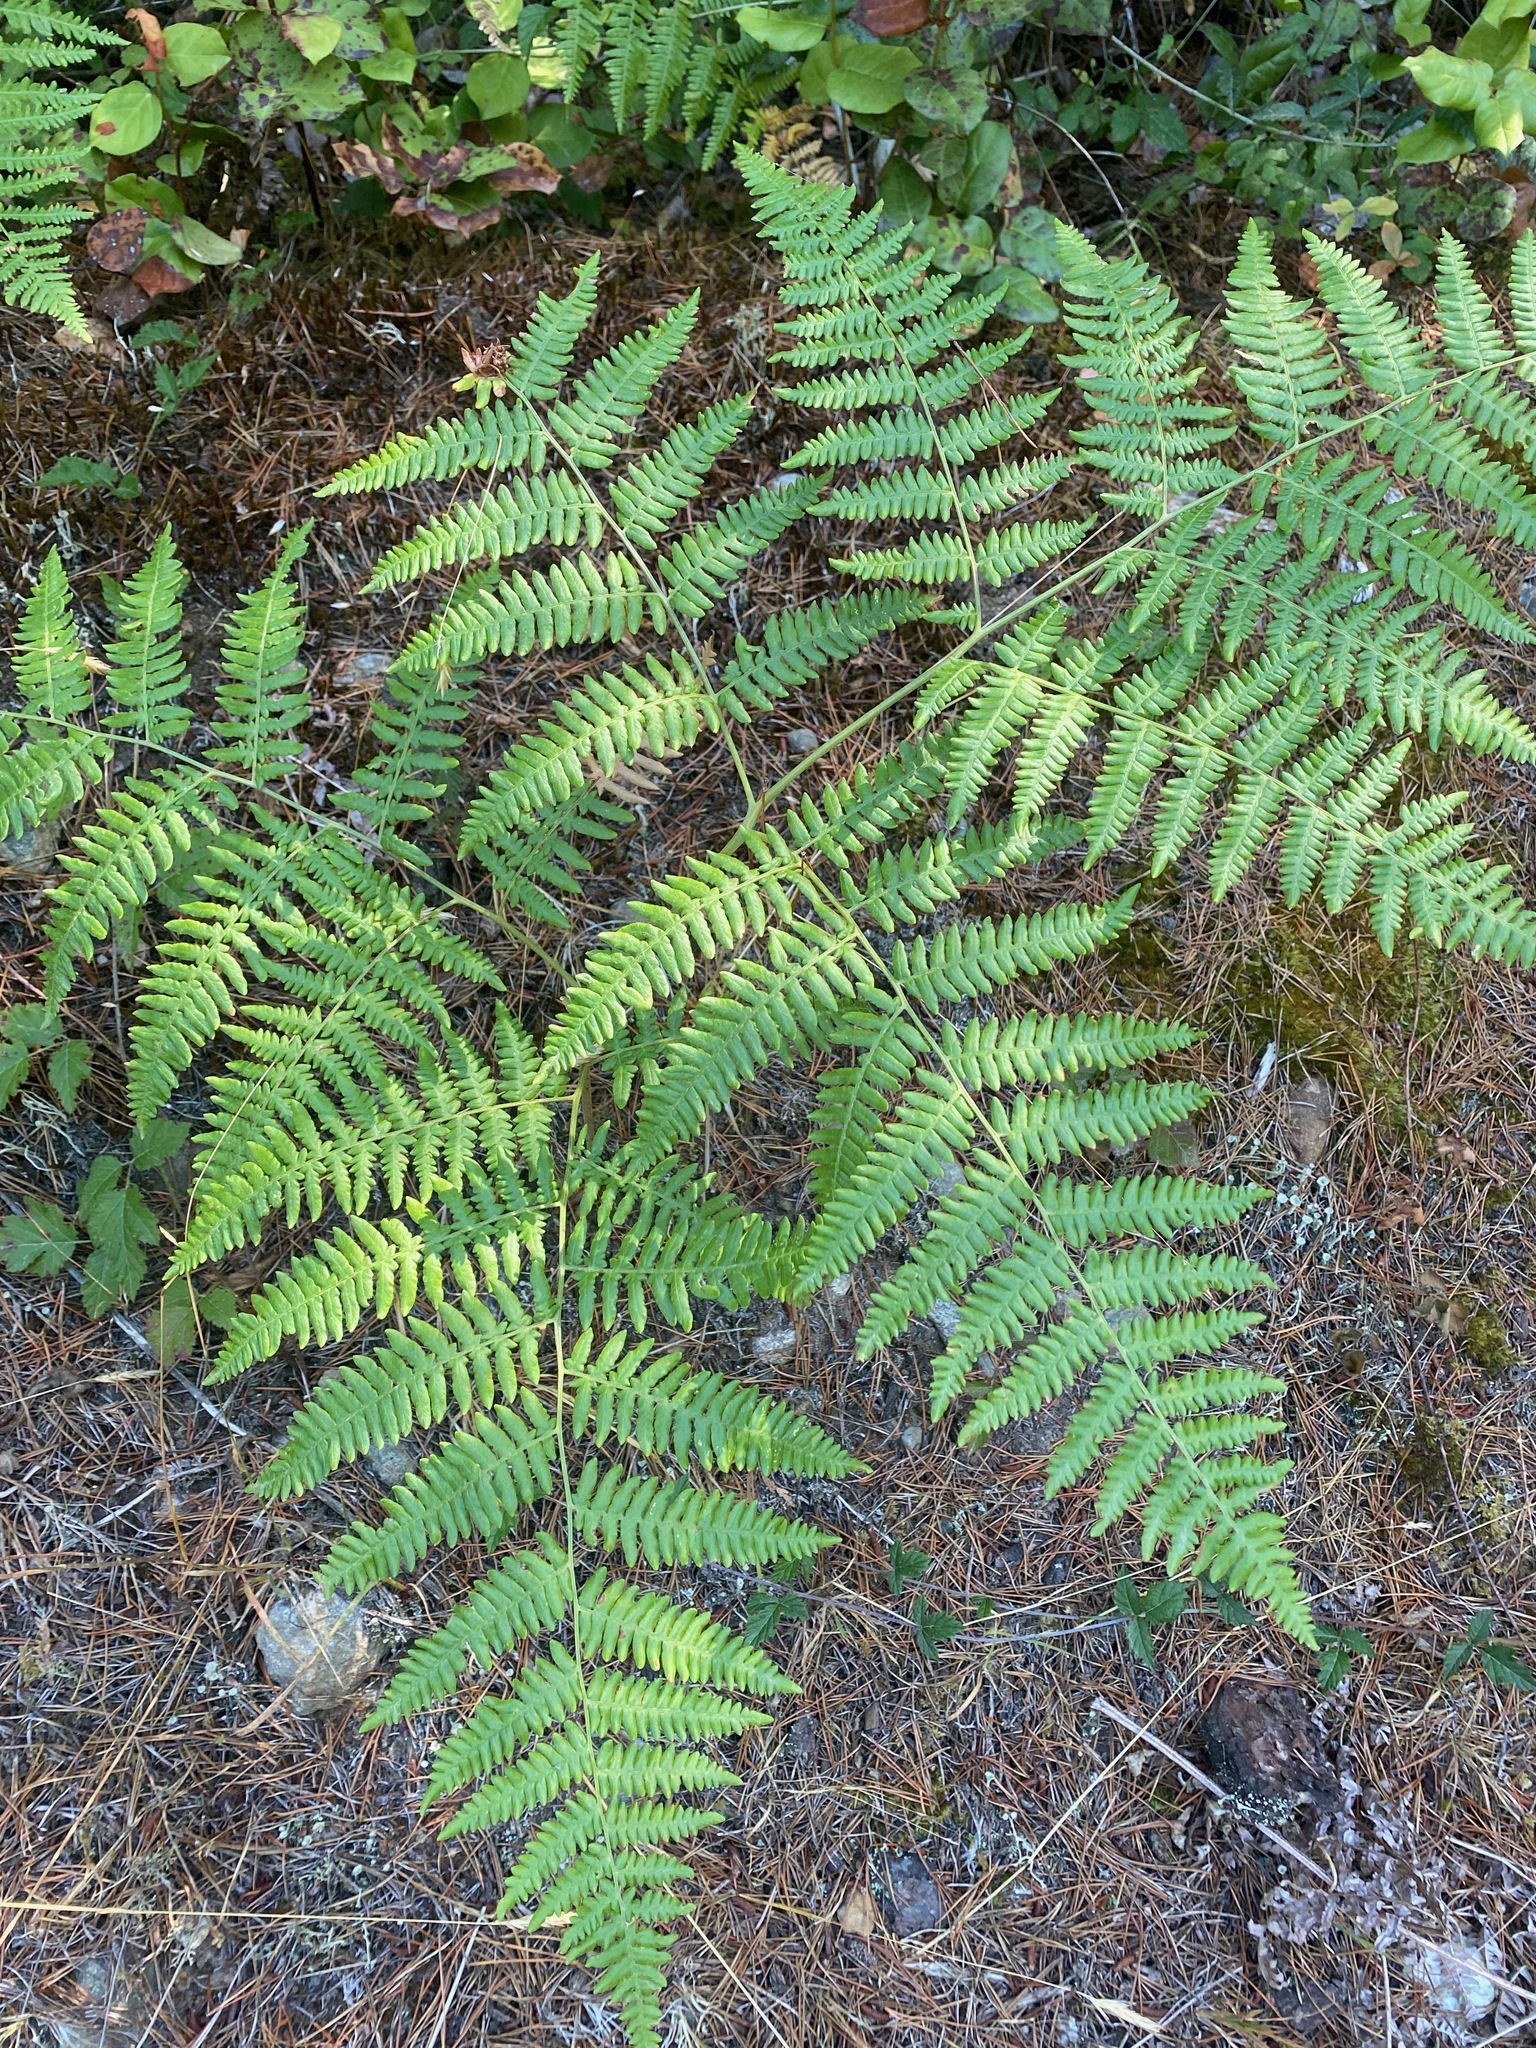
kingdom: Plantae
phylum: Tracheophyta
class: Polypodiopsida
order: Polypodiales
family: Dennstaedtiaceae
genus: Pteridium
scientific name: Pteridium aquilinum
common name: Bracken
